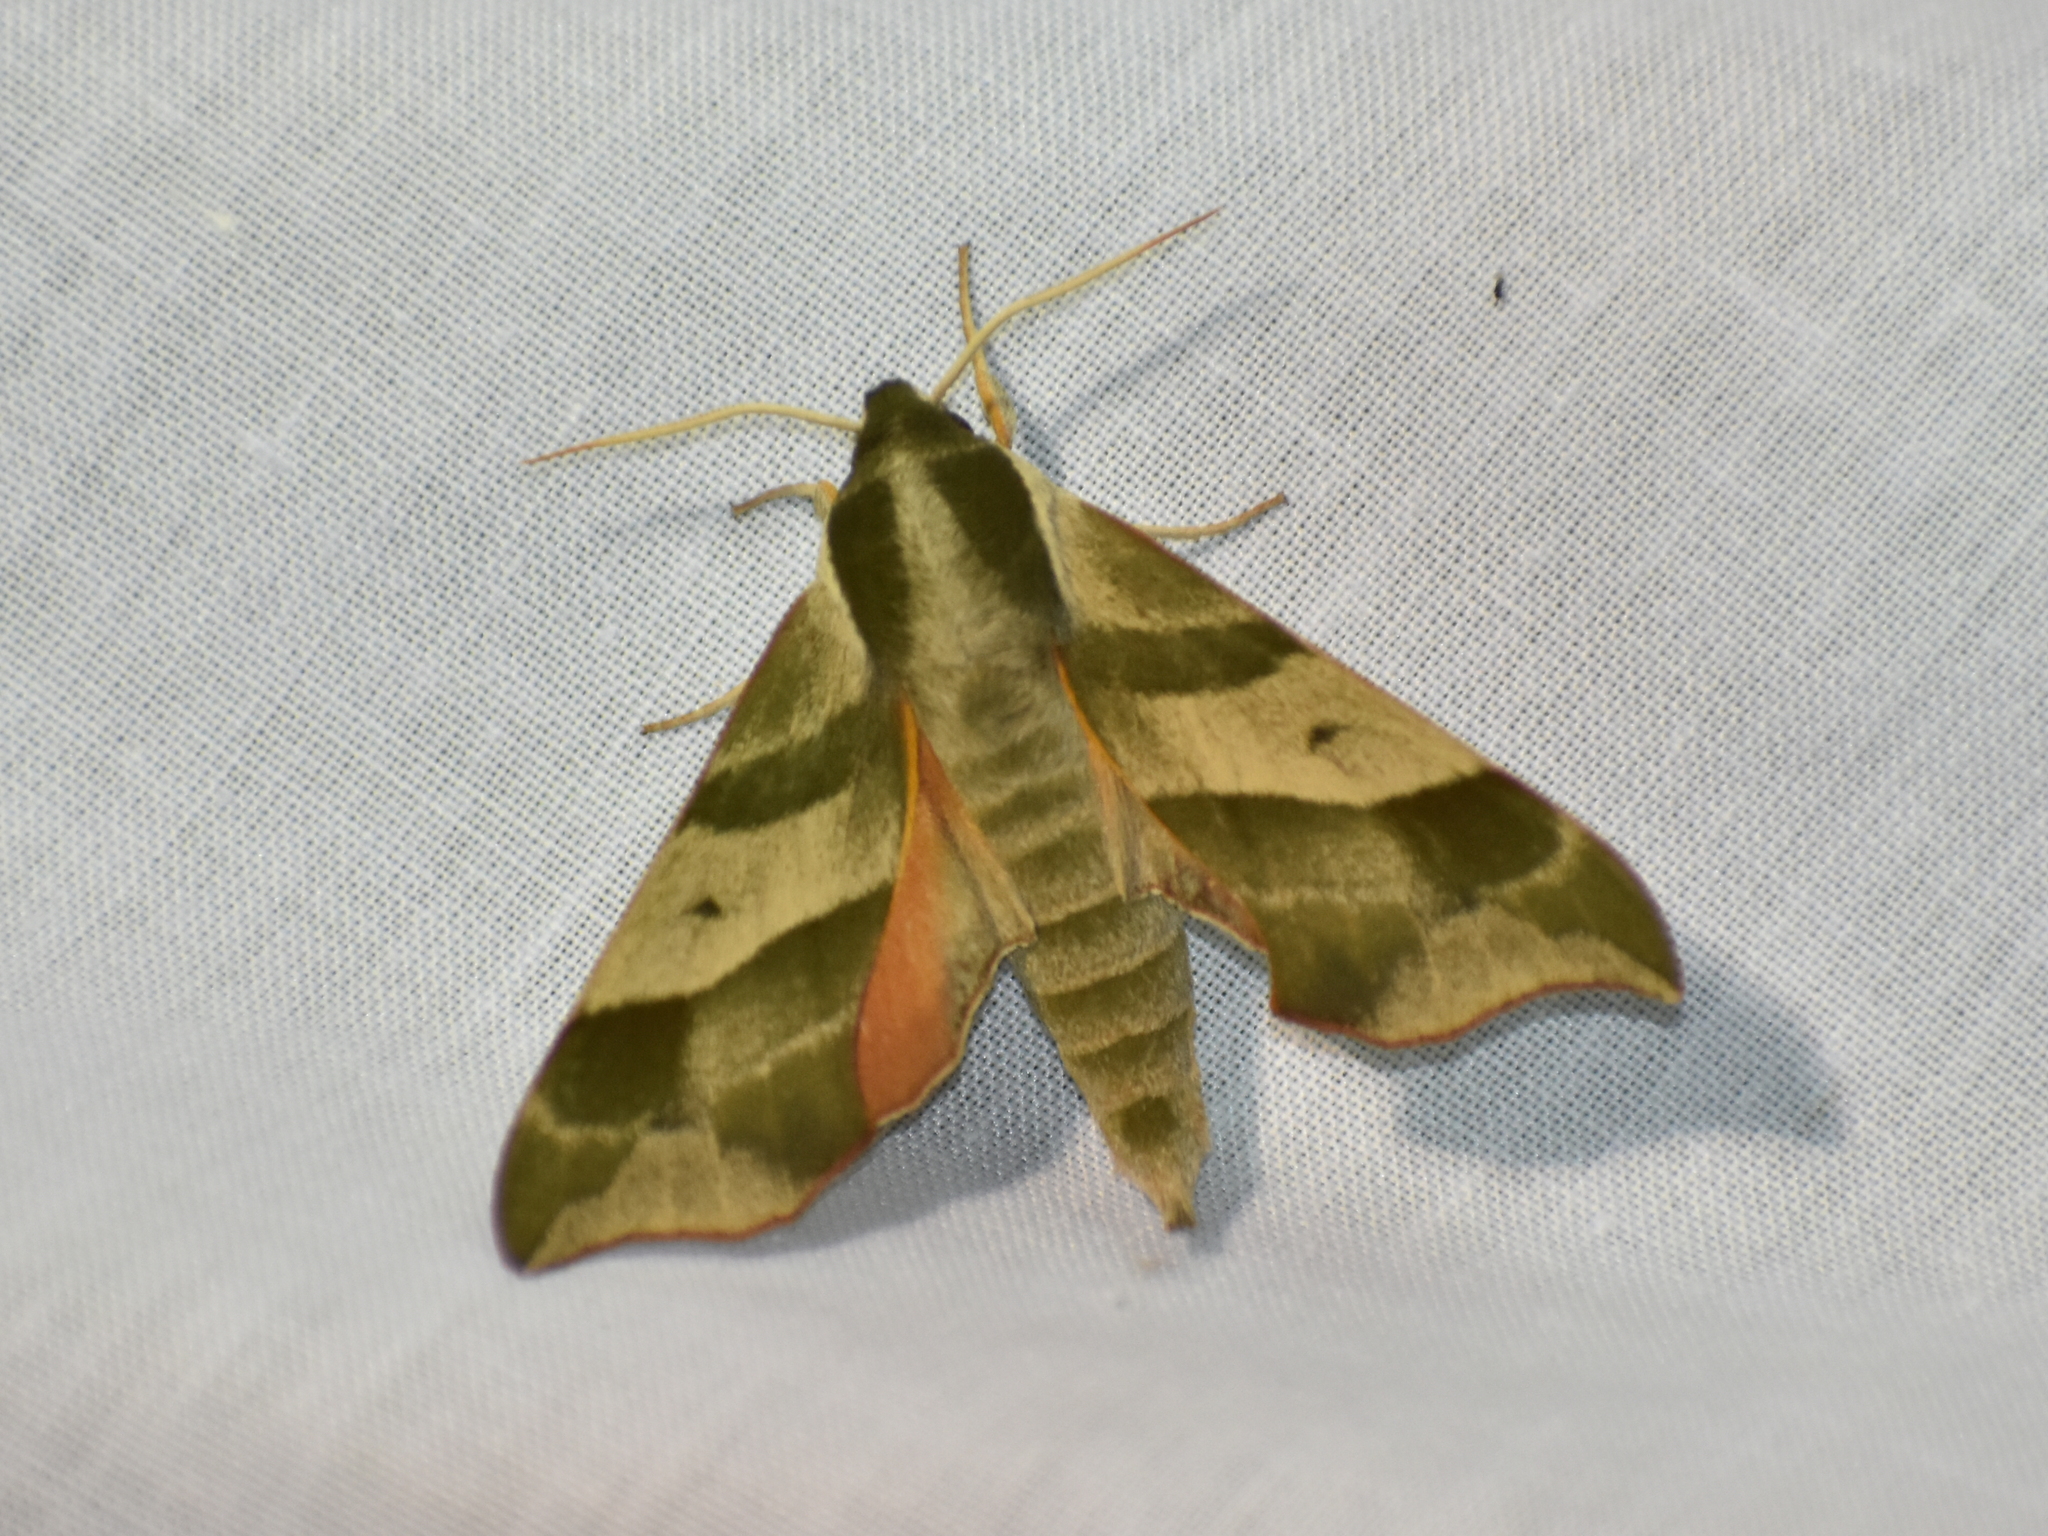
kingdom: Animalia
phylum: Arthropoda
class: Insecta
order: Lepidoptera
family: Sphingidae
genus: Darapsa
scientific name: Darapsa myron
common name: Hog sphinx
